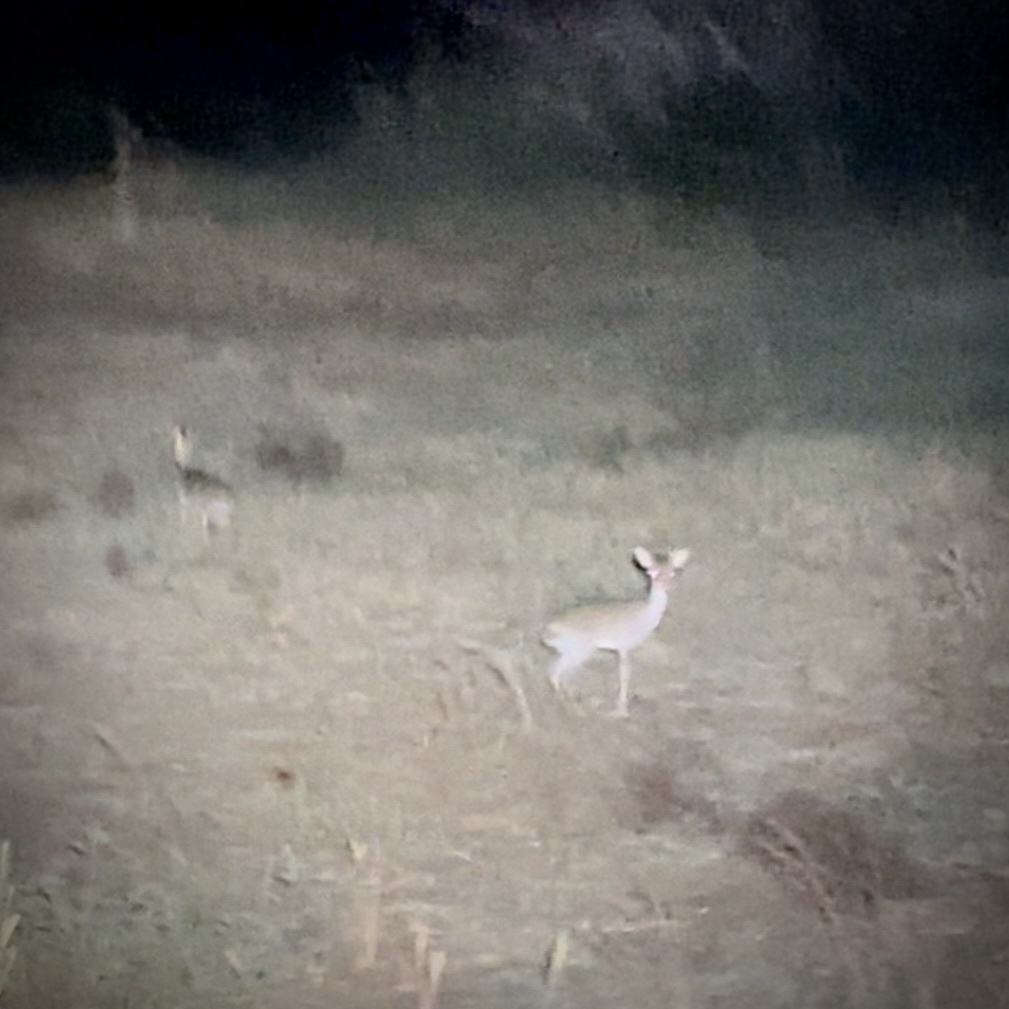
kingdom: Animalia
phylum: Chordata
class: Mammalia
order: Artiodactyla
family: Bovidae
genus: Madoqua
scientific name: Madoqua kirkii
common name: Kirk's dik-dik
